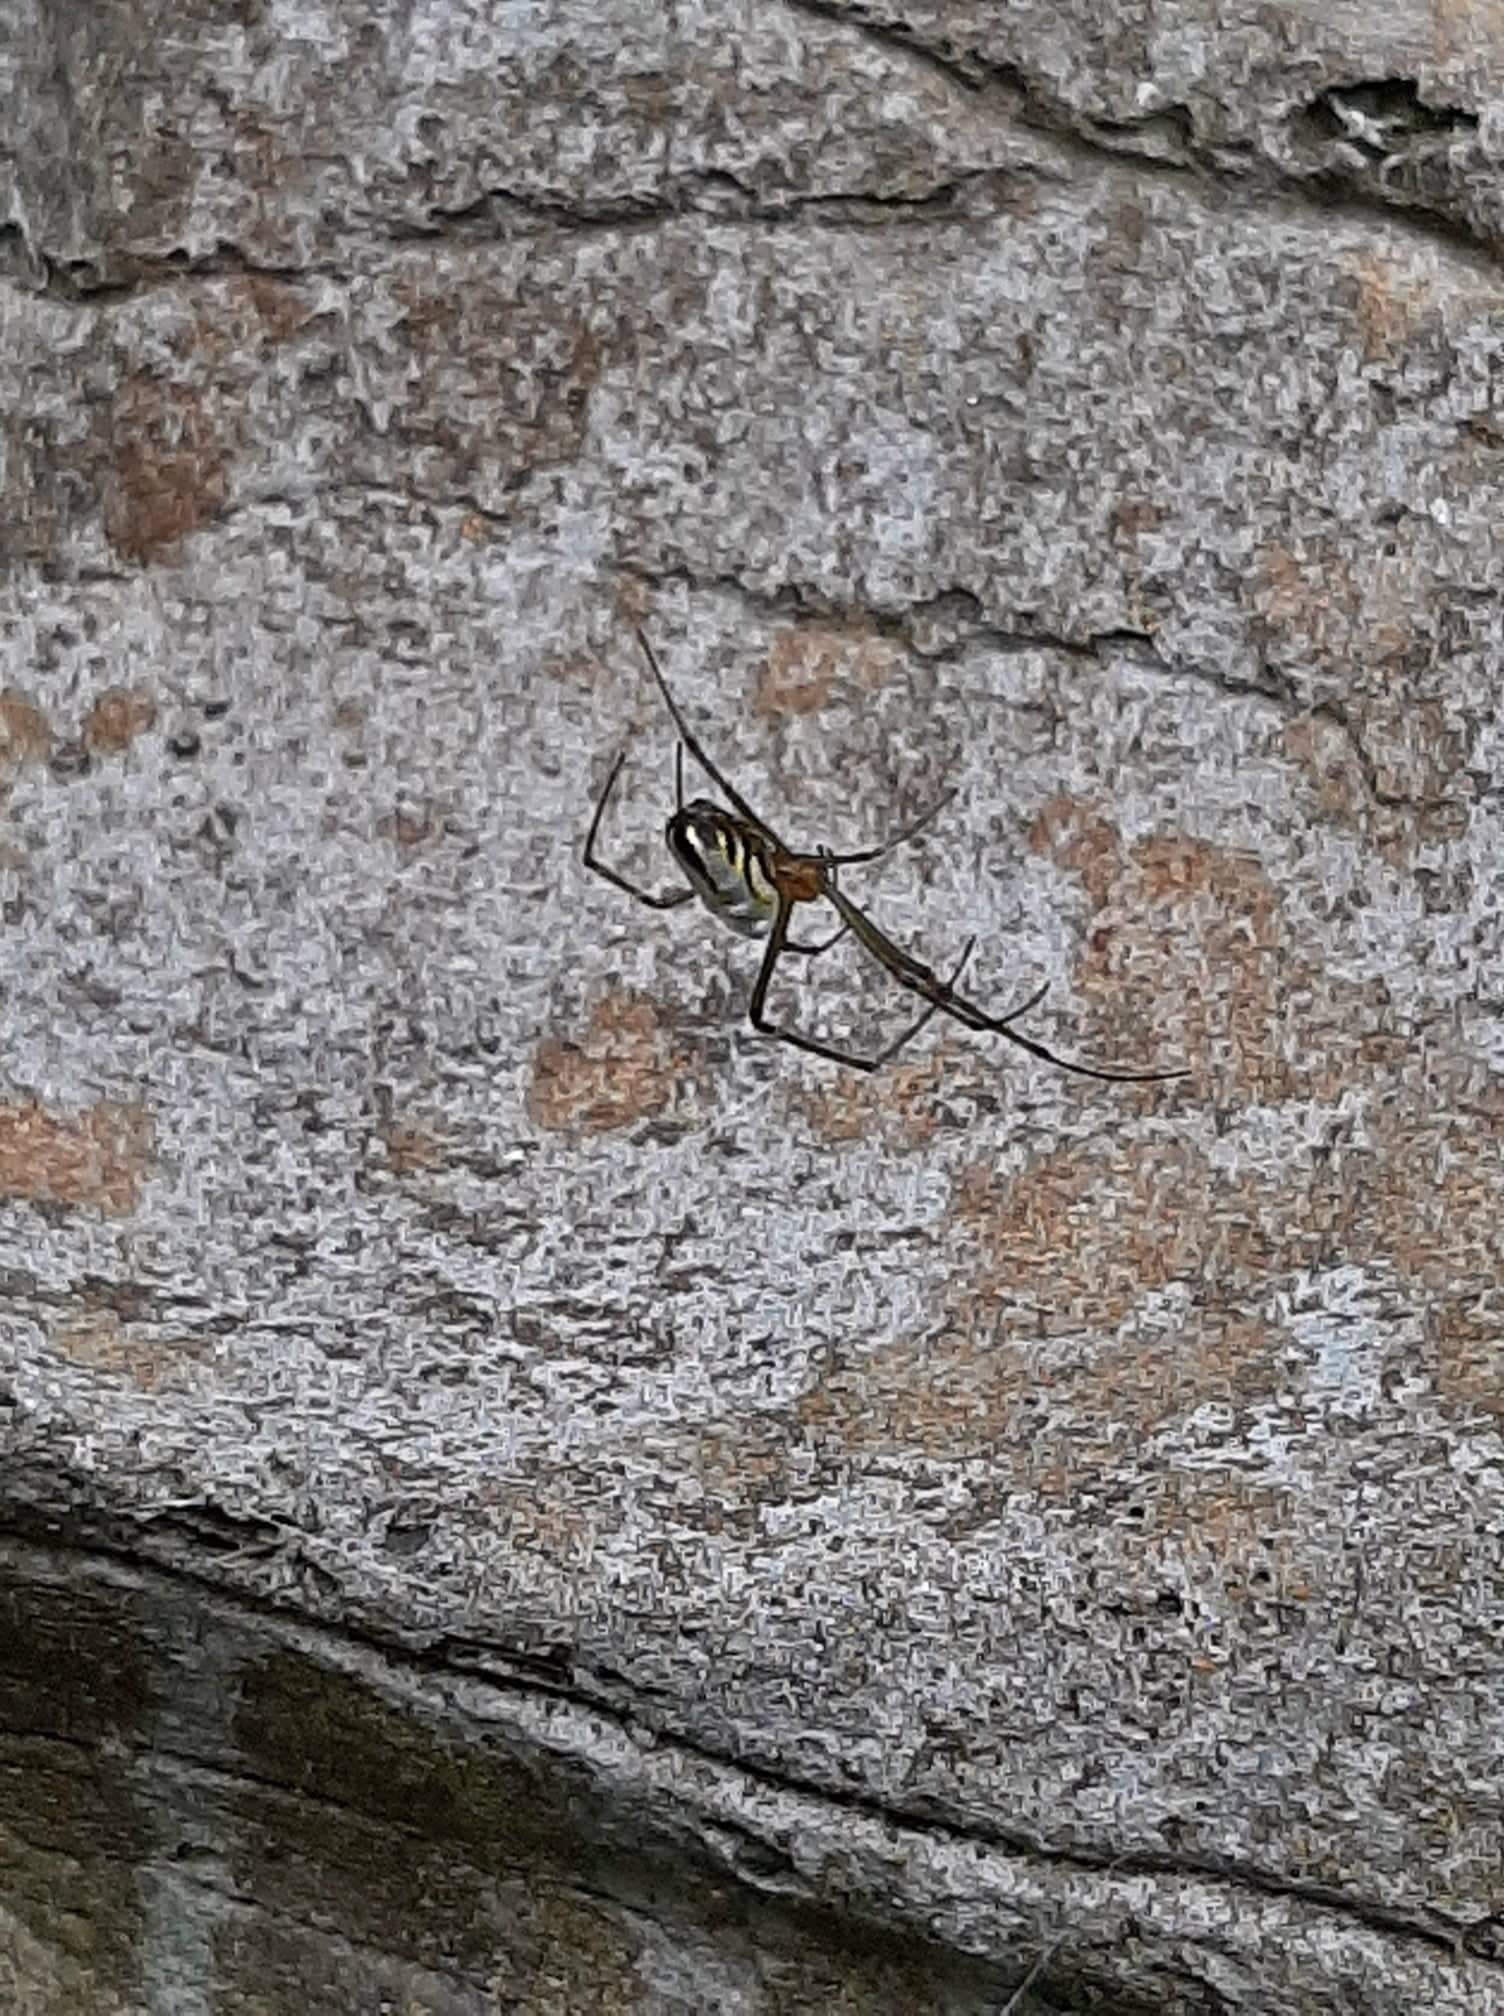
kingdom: Animalia
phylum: Arthropoda
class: Arachnida
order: Araneae
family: Tetragnathidae
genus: Leucauge
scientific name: Leucauge dromedaria
